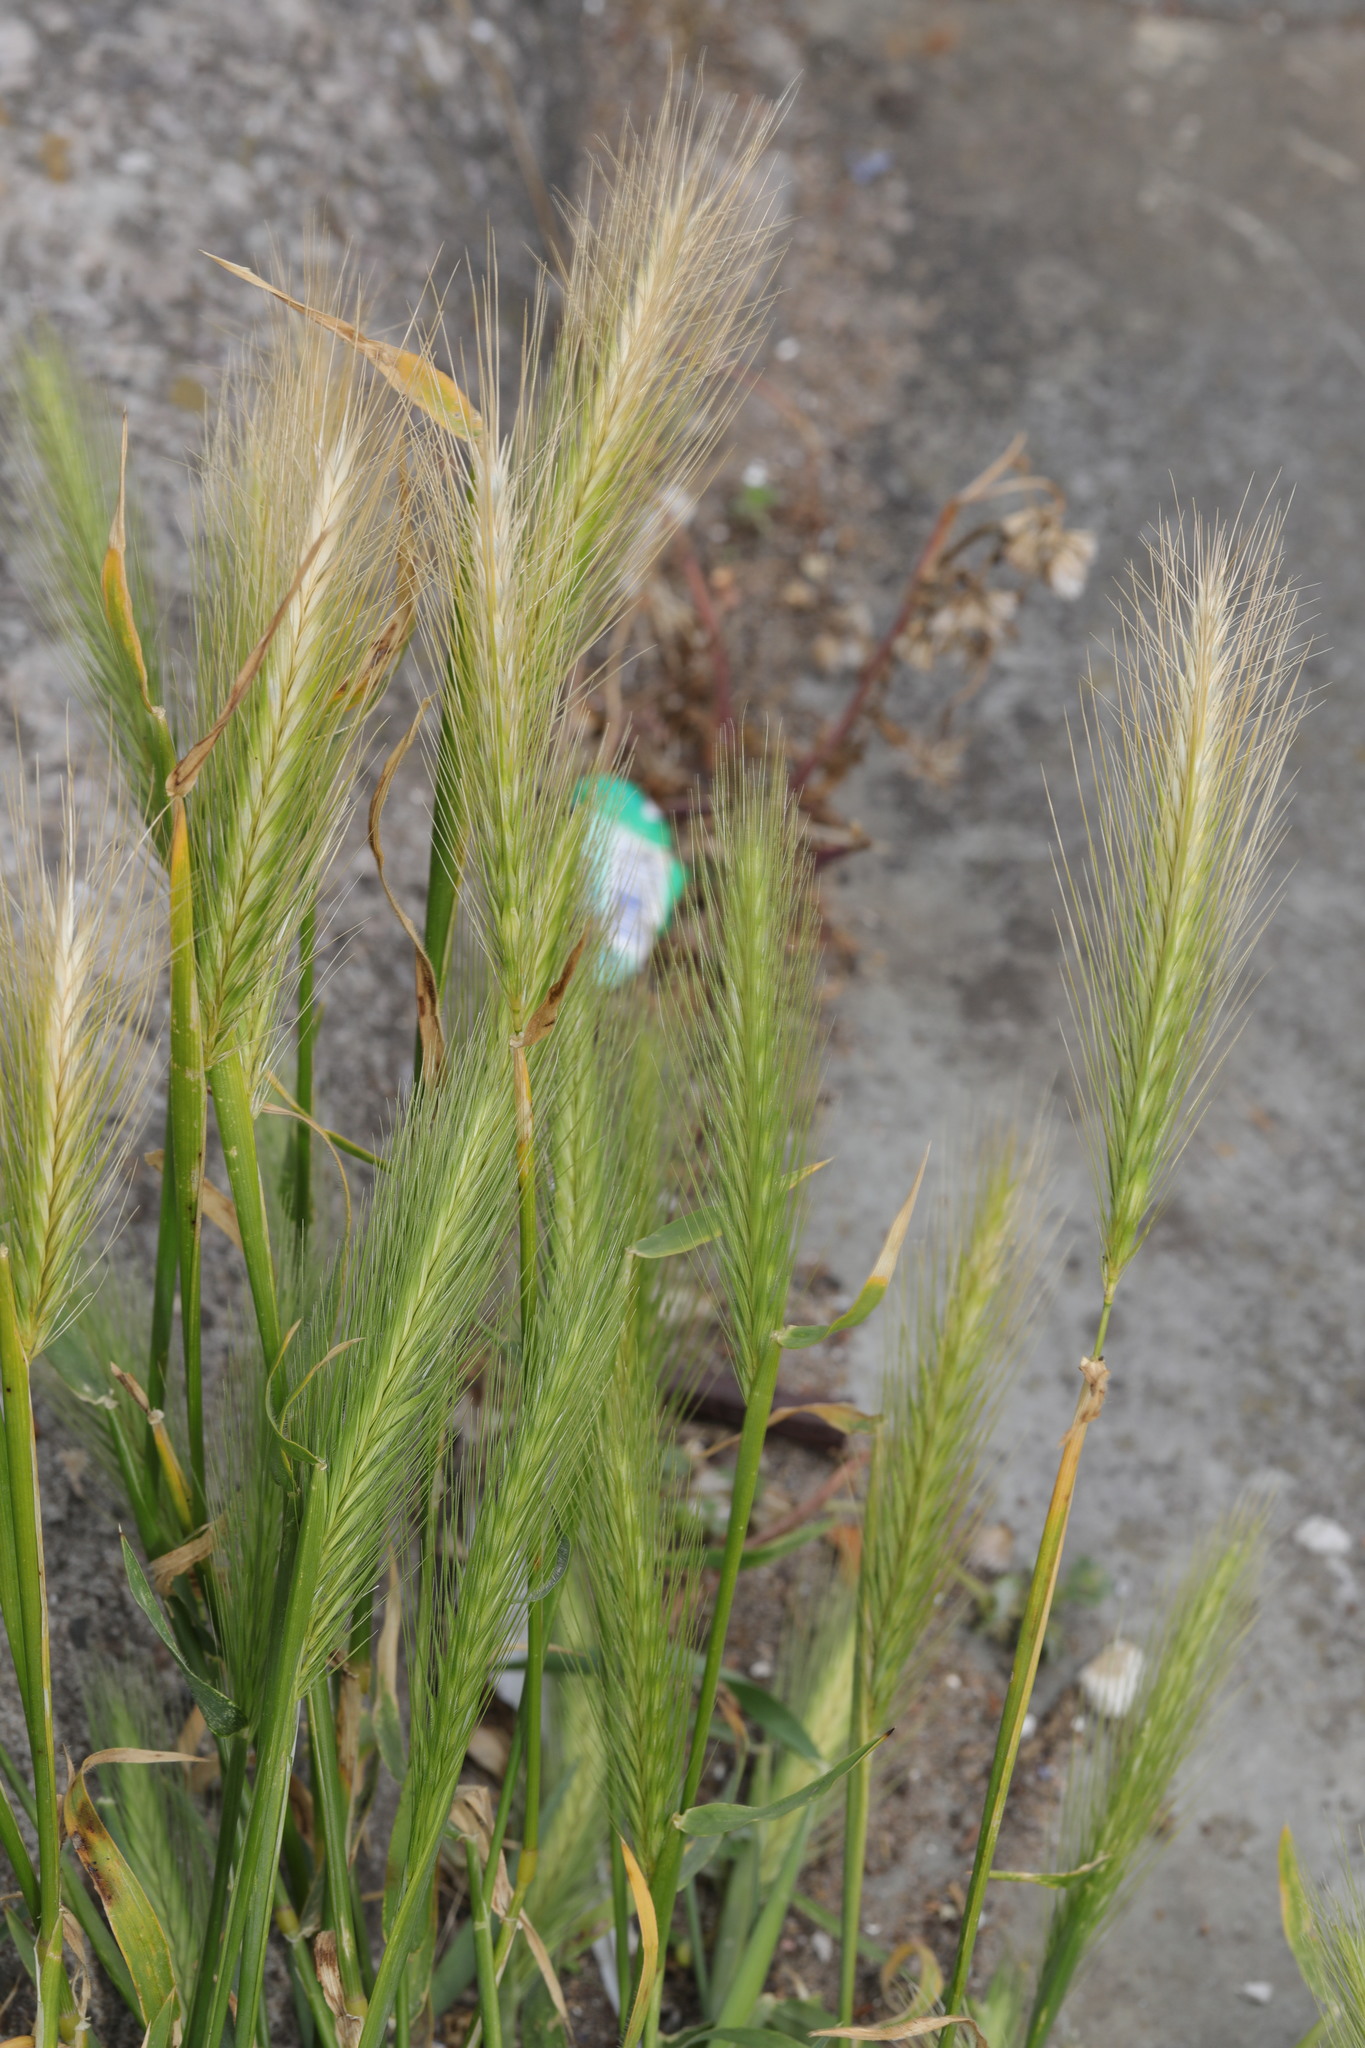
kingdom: Plantae
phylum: Tracheophyta
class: Liliopsida
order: Poales
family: Poaceae
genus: Hordeum
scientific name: Hordeum murinum
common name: Wall barley
